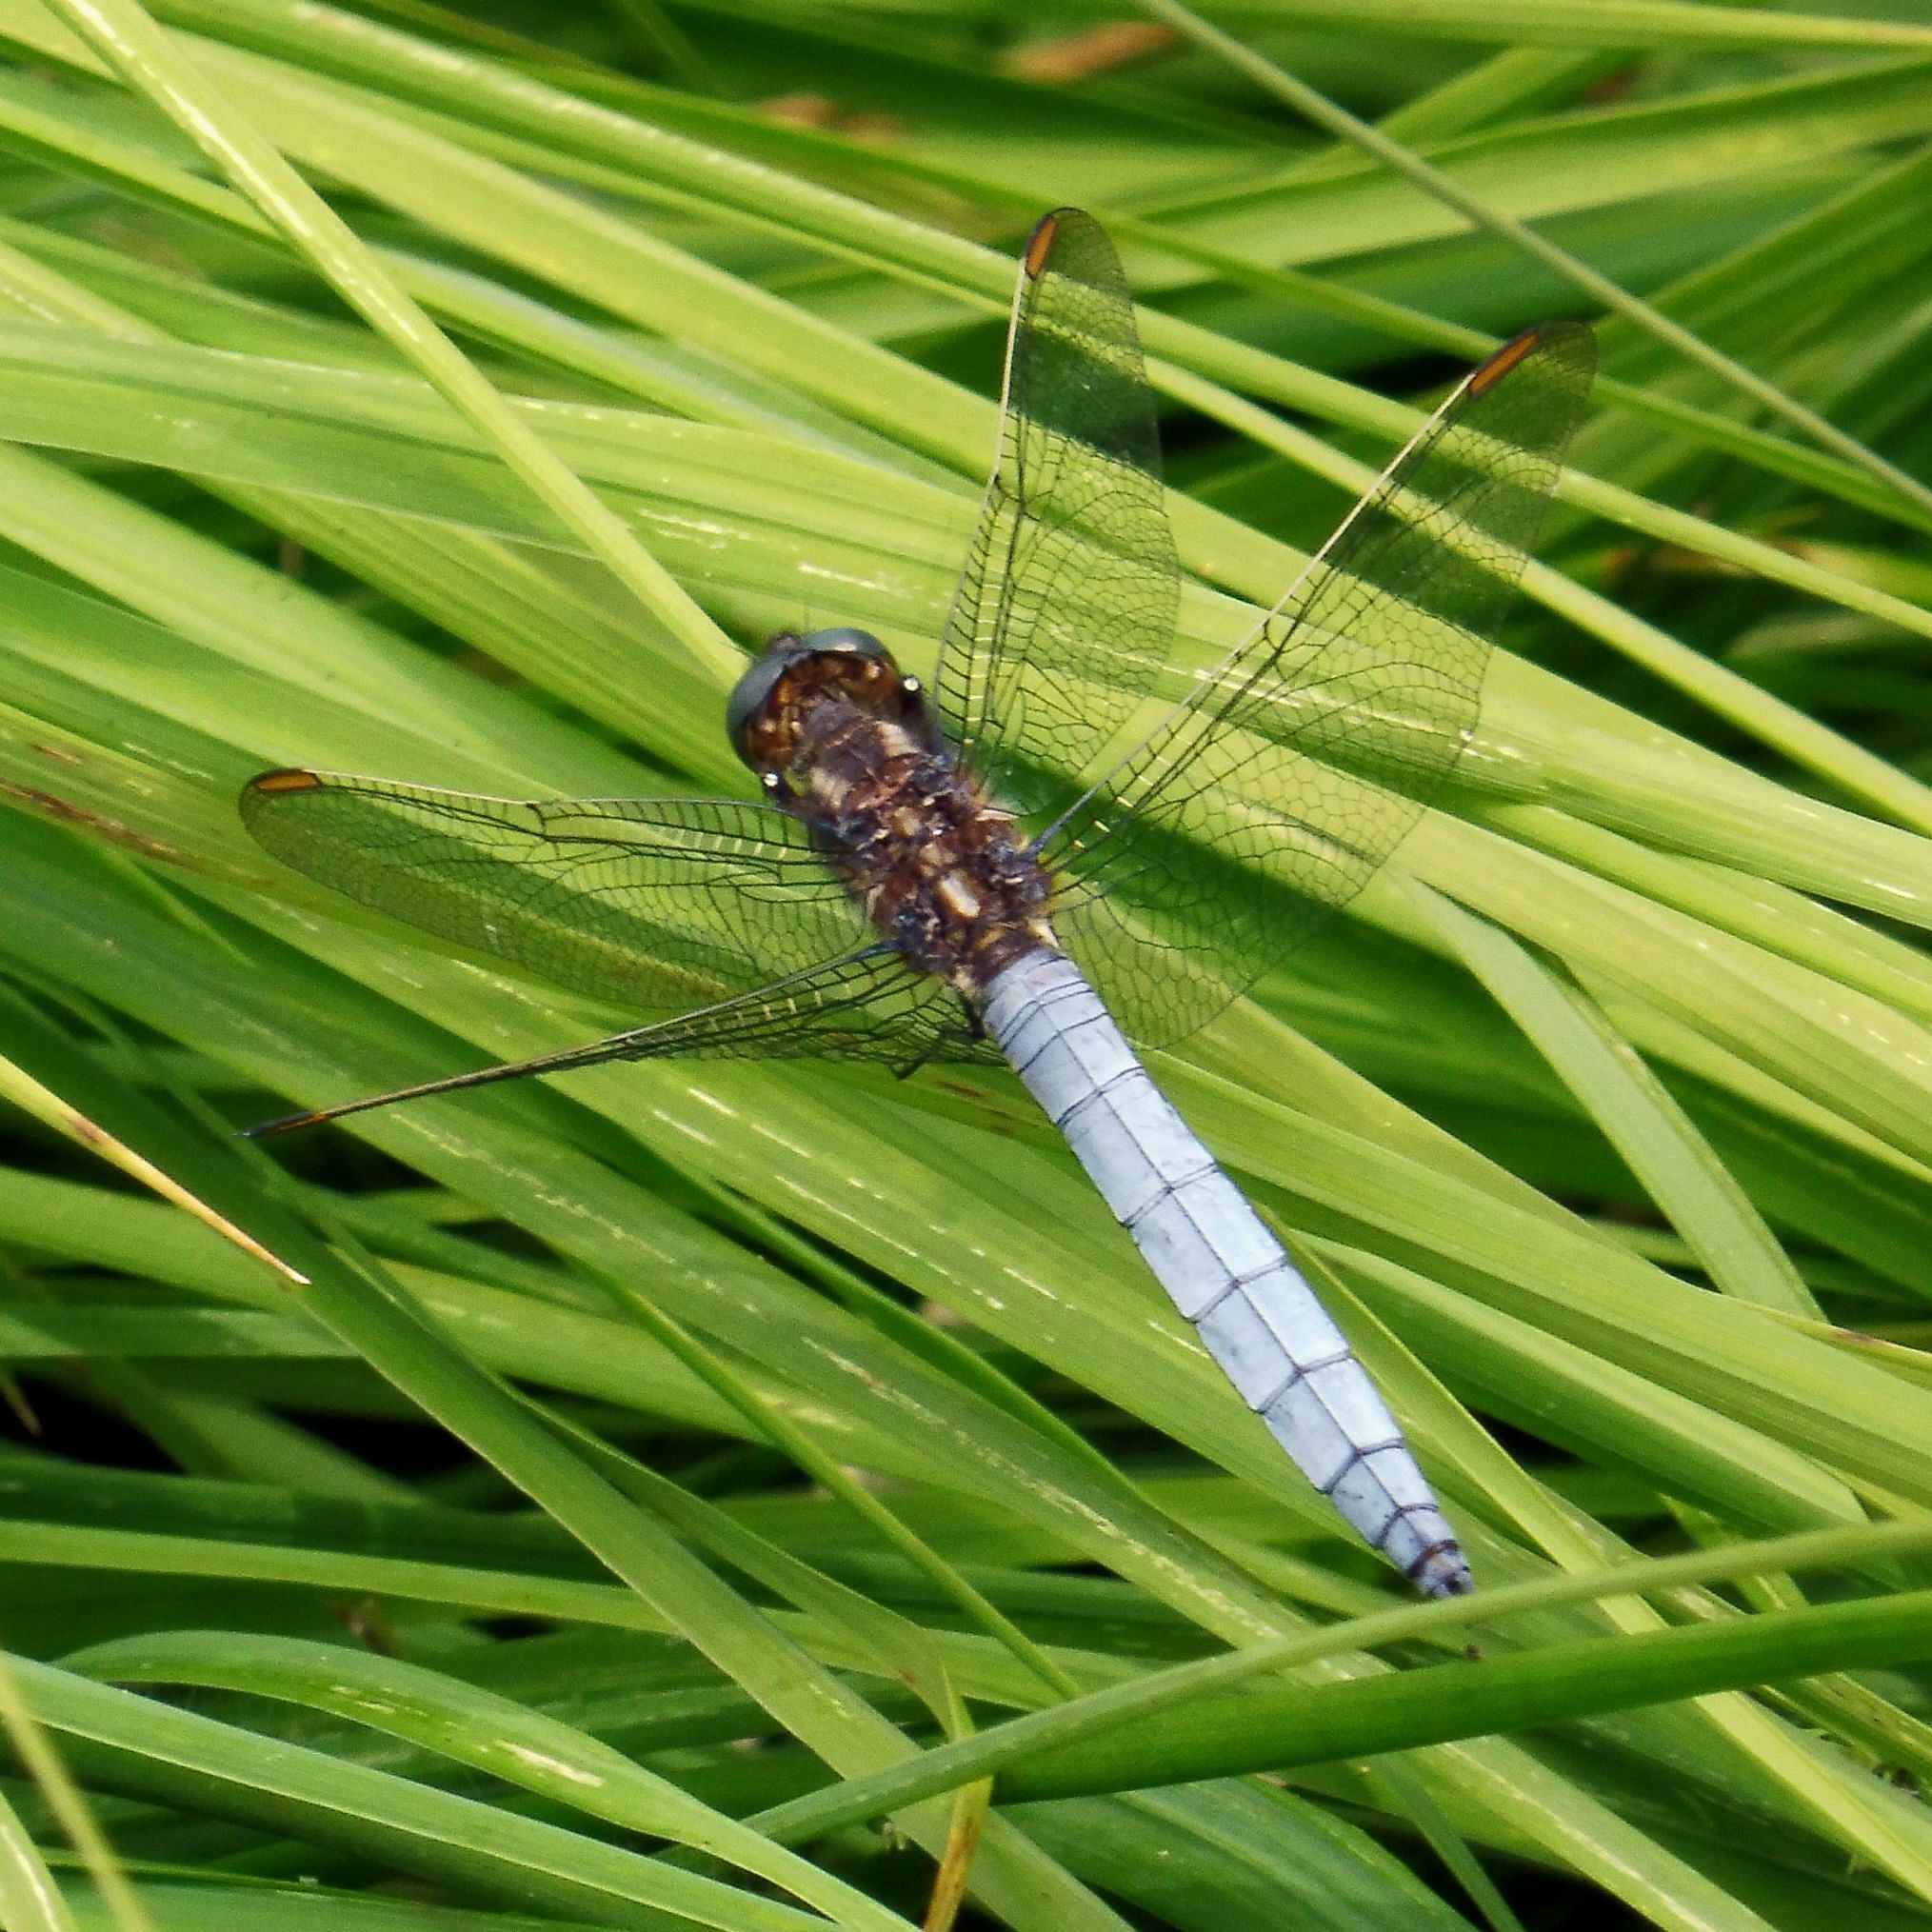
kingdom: Animalia
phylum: Arthropoda
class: Insecta
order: Odonata
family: Libellulidae
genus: Orthetrum
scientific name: Orthetrum coerulescens
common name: Keeled skimmer
